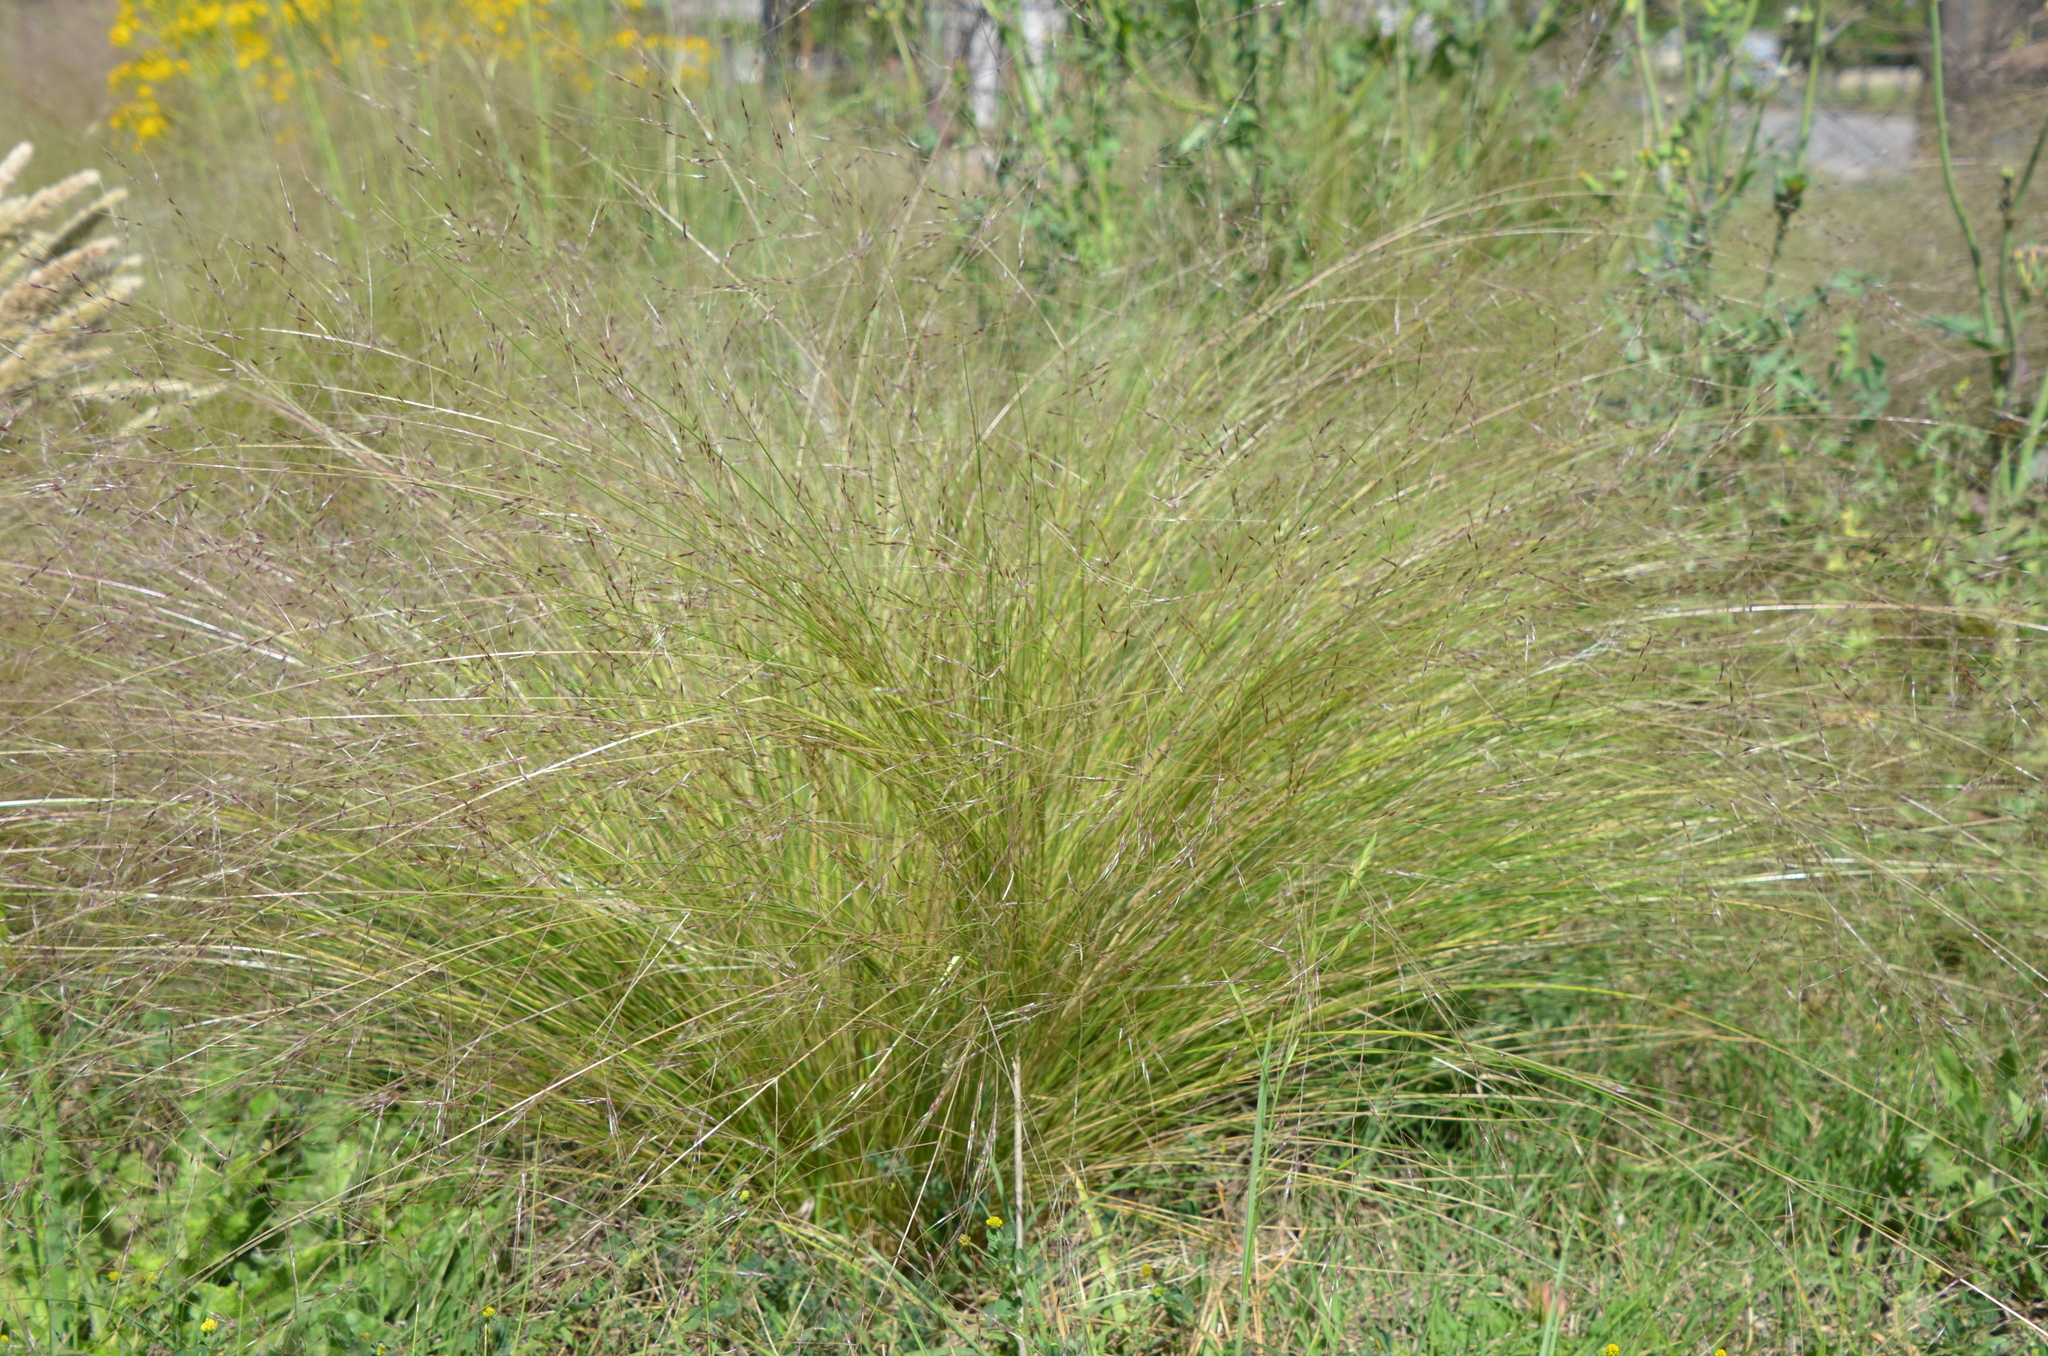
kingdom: Plantae
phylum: Tracheophyta
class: Liliopsida
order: Poales
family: Poaceae
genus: Nassella
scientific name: Nassella trichotoma
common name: Serrated tussock grass
